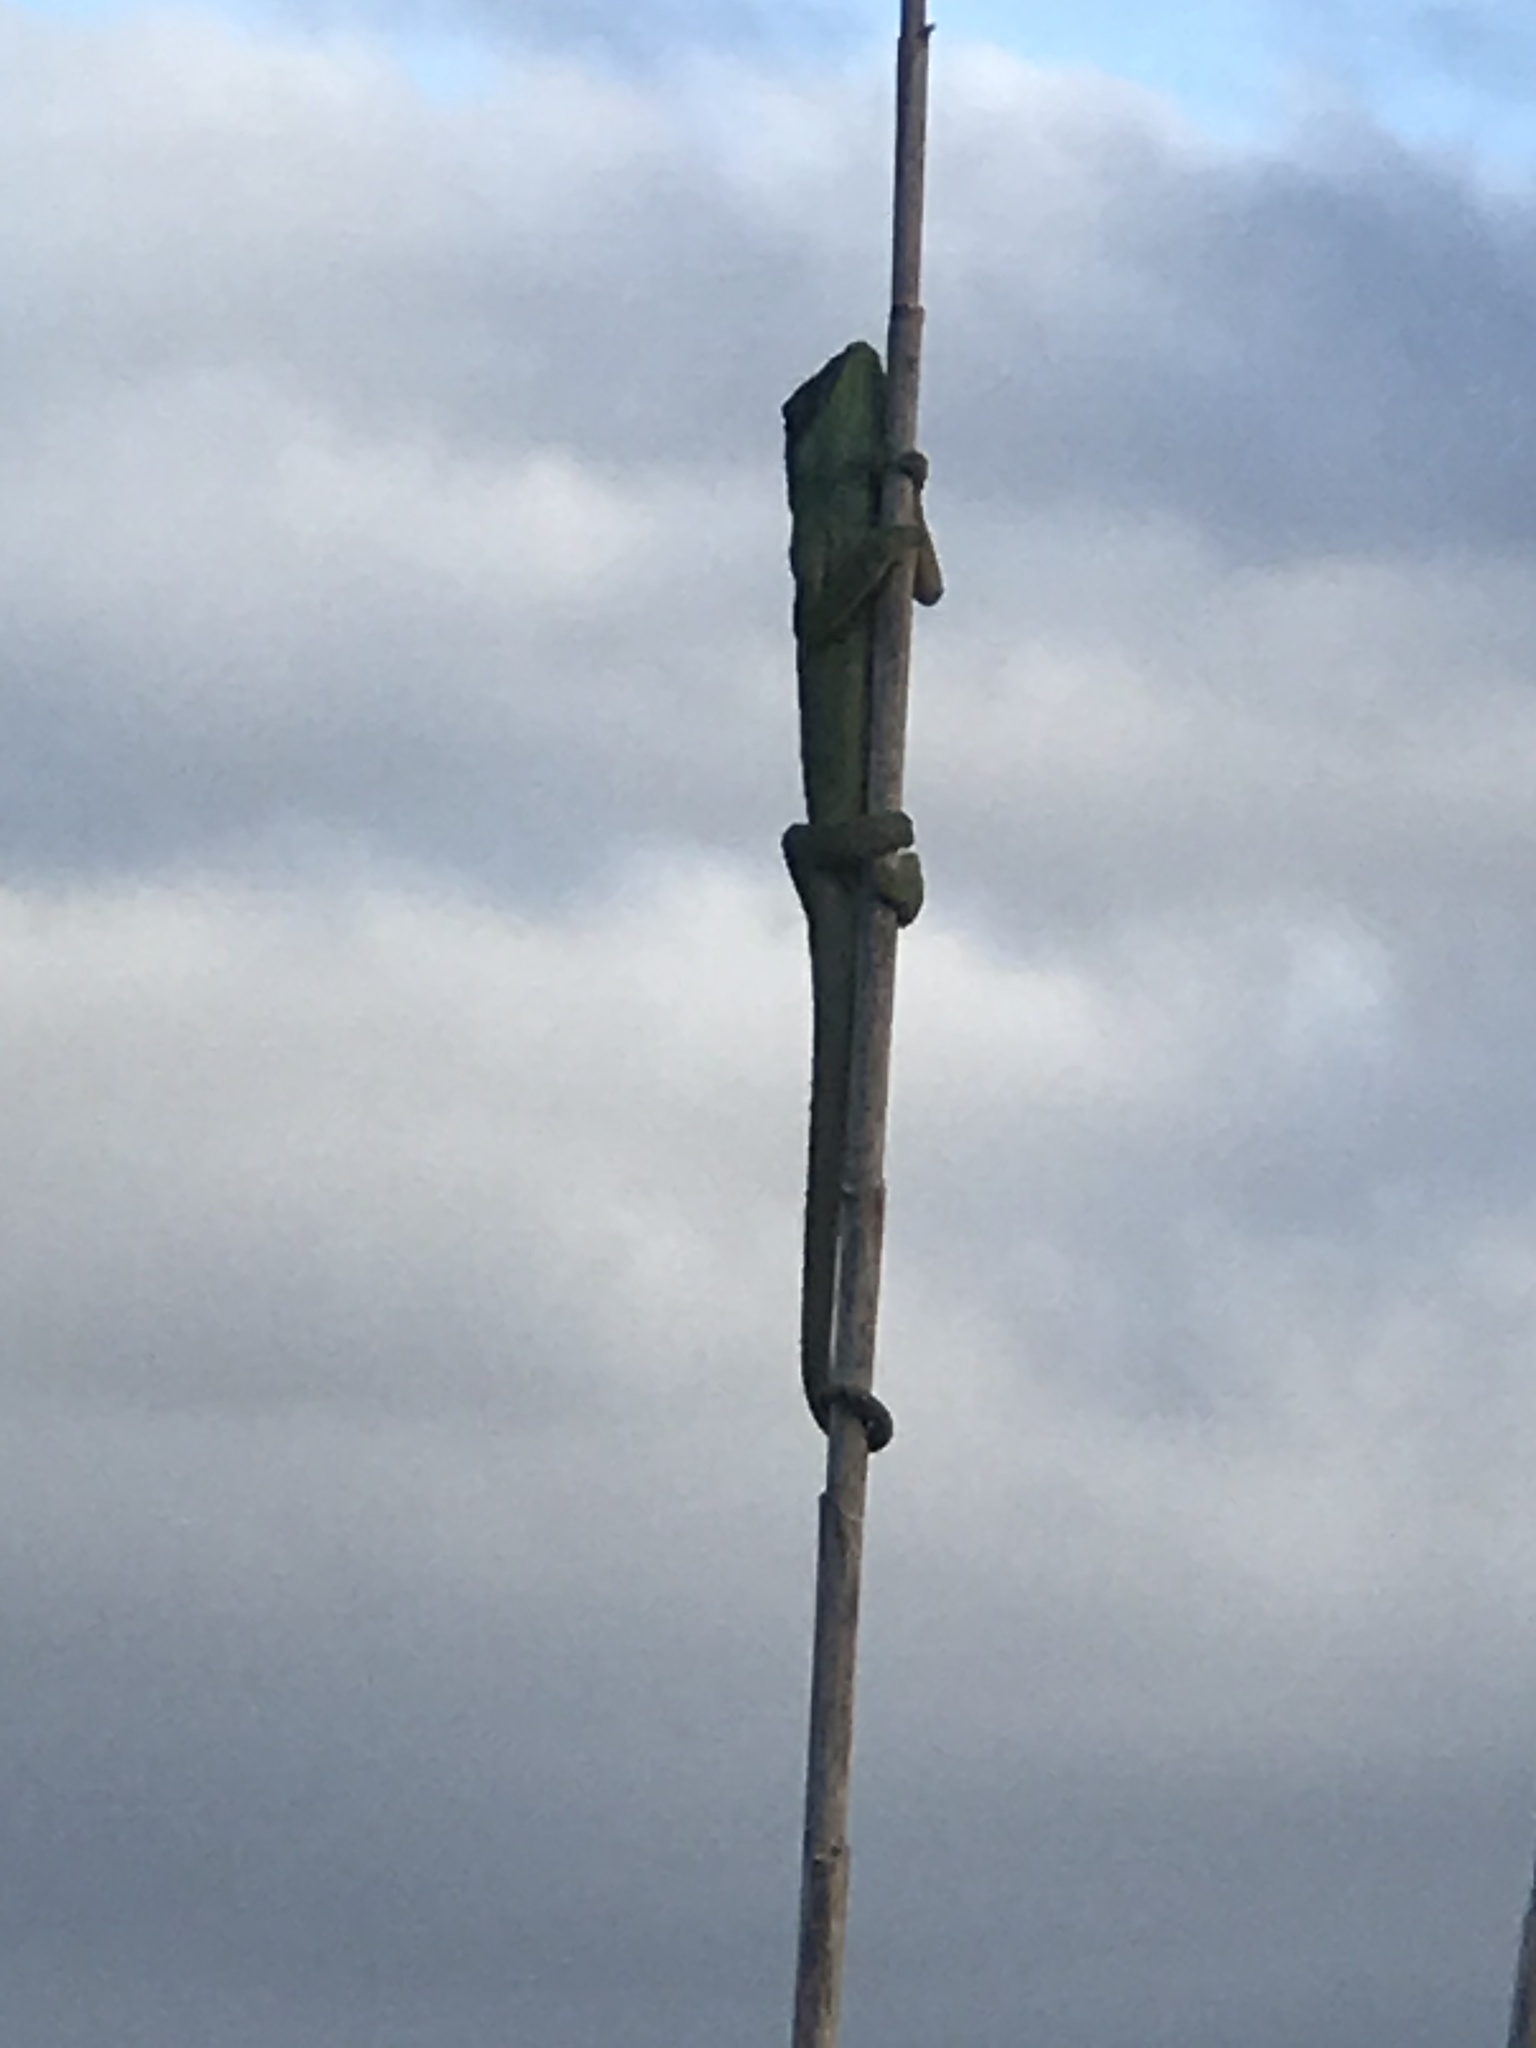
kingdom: Animalia
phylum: Chordata
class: Squamata
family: Chamaeleonidae
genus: Bradypodion
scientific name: Bradypodion pumilum
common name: Cape dwarf chameleon
